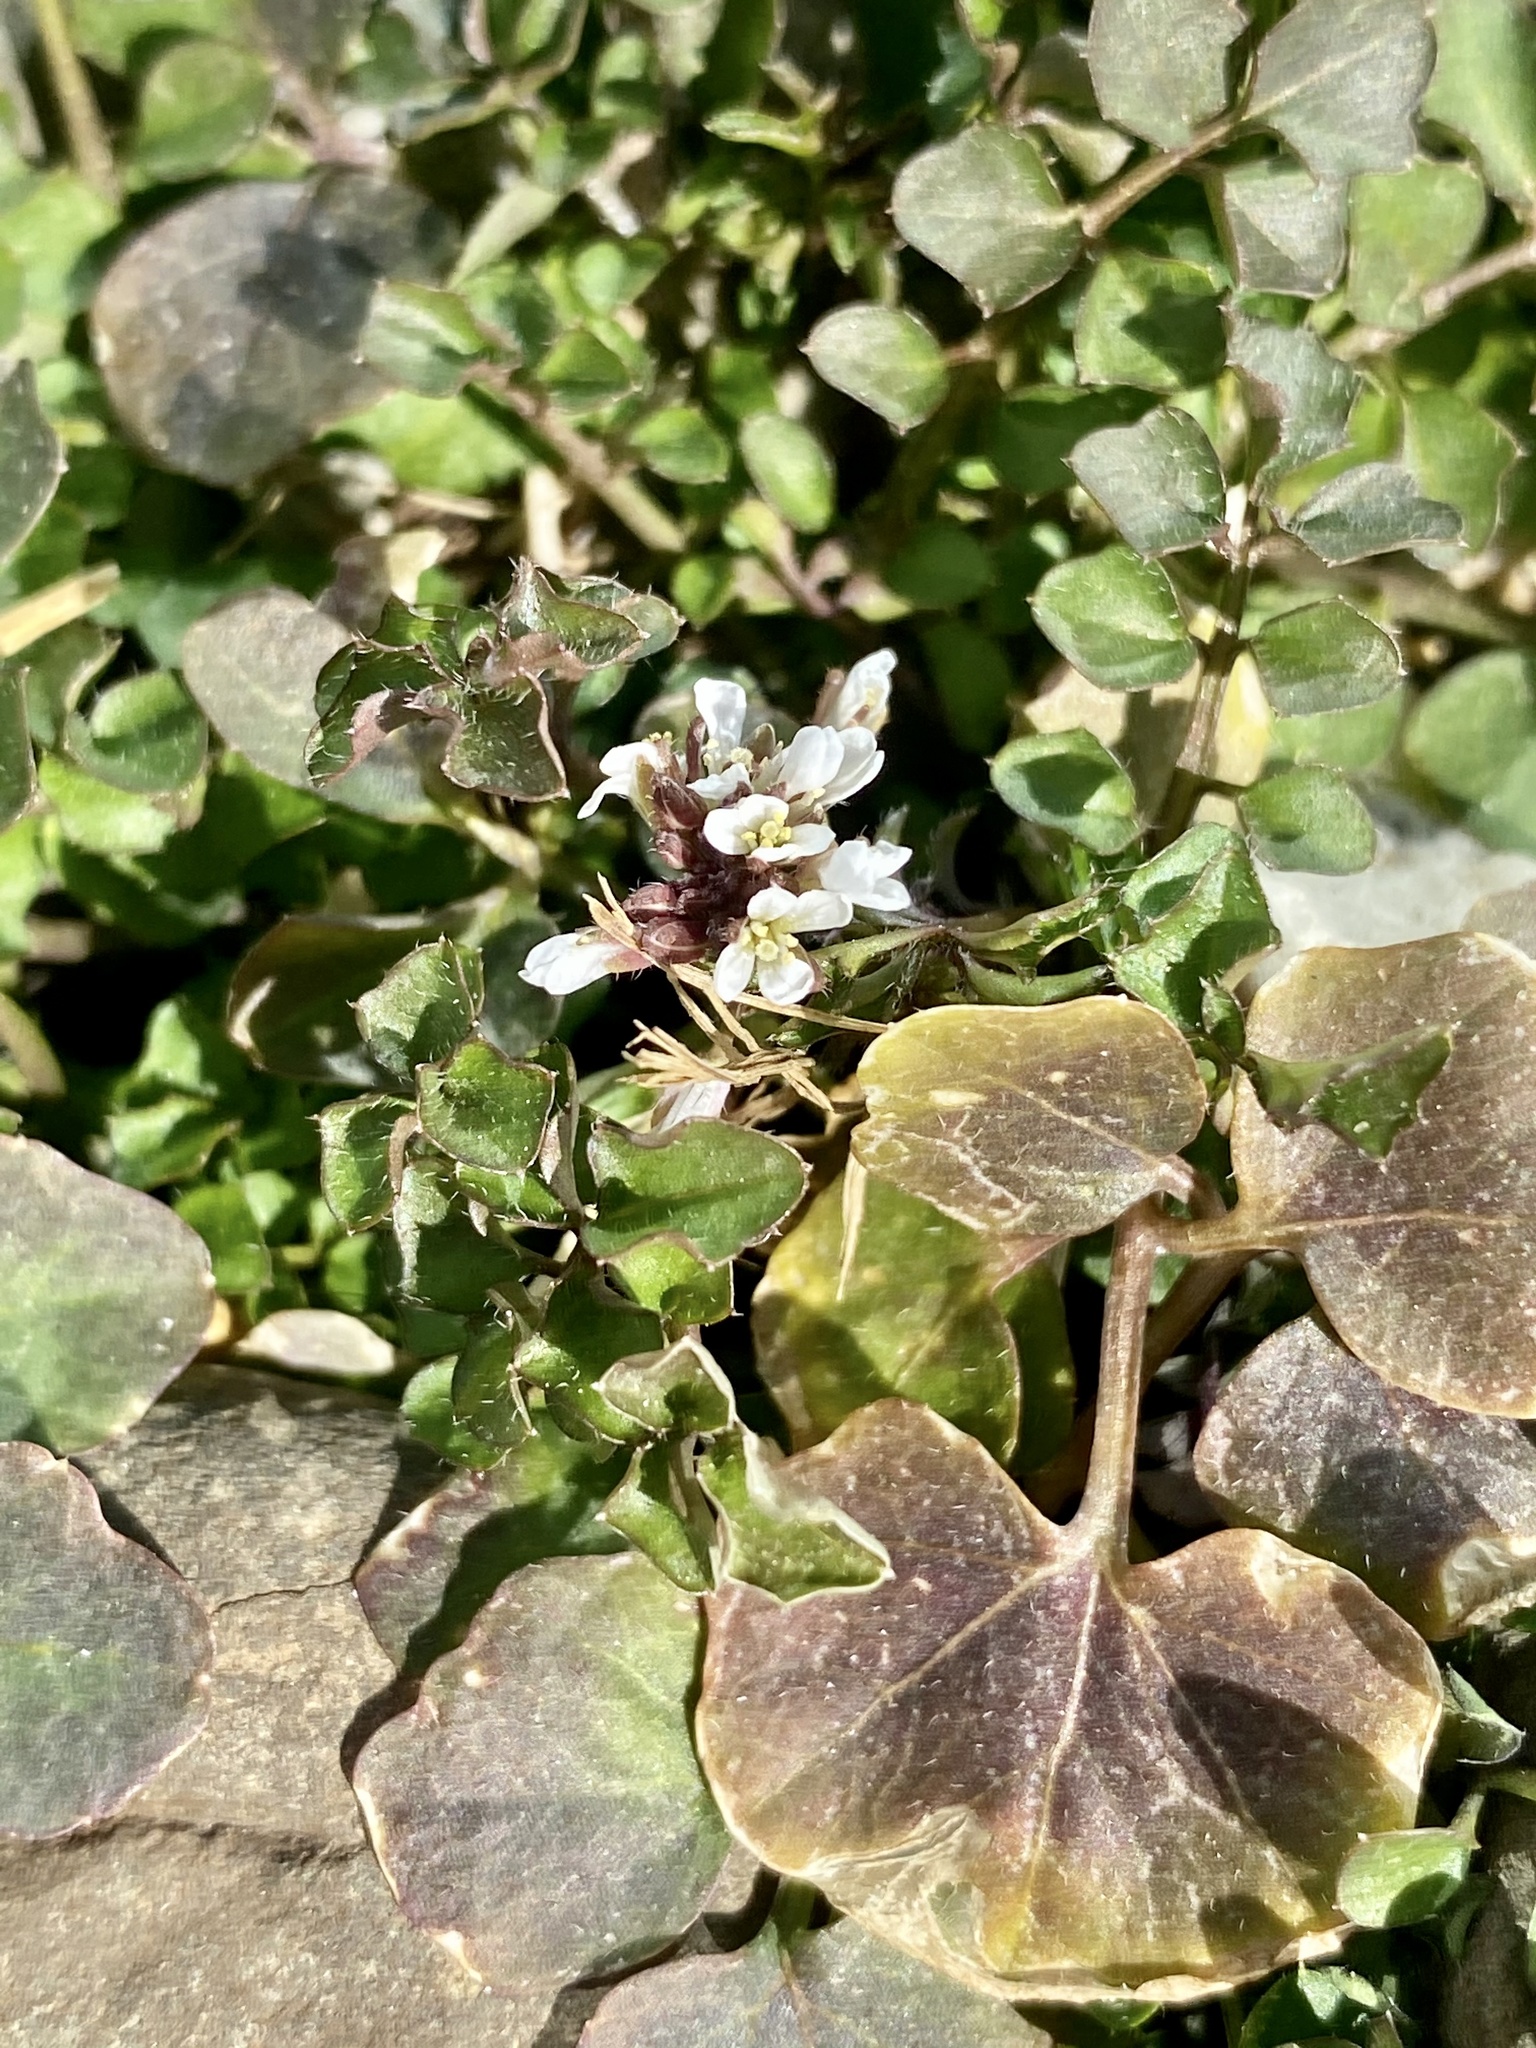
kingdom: Plantae
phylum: Tracheophyta
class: Magnoliopsida
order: Brassicales
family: Brassicaceae
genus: Cardamine
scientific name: Cardamine hirsuta
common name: Hairy bittercress
